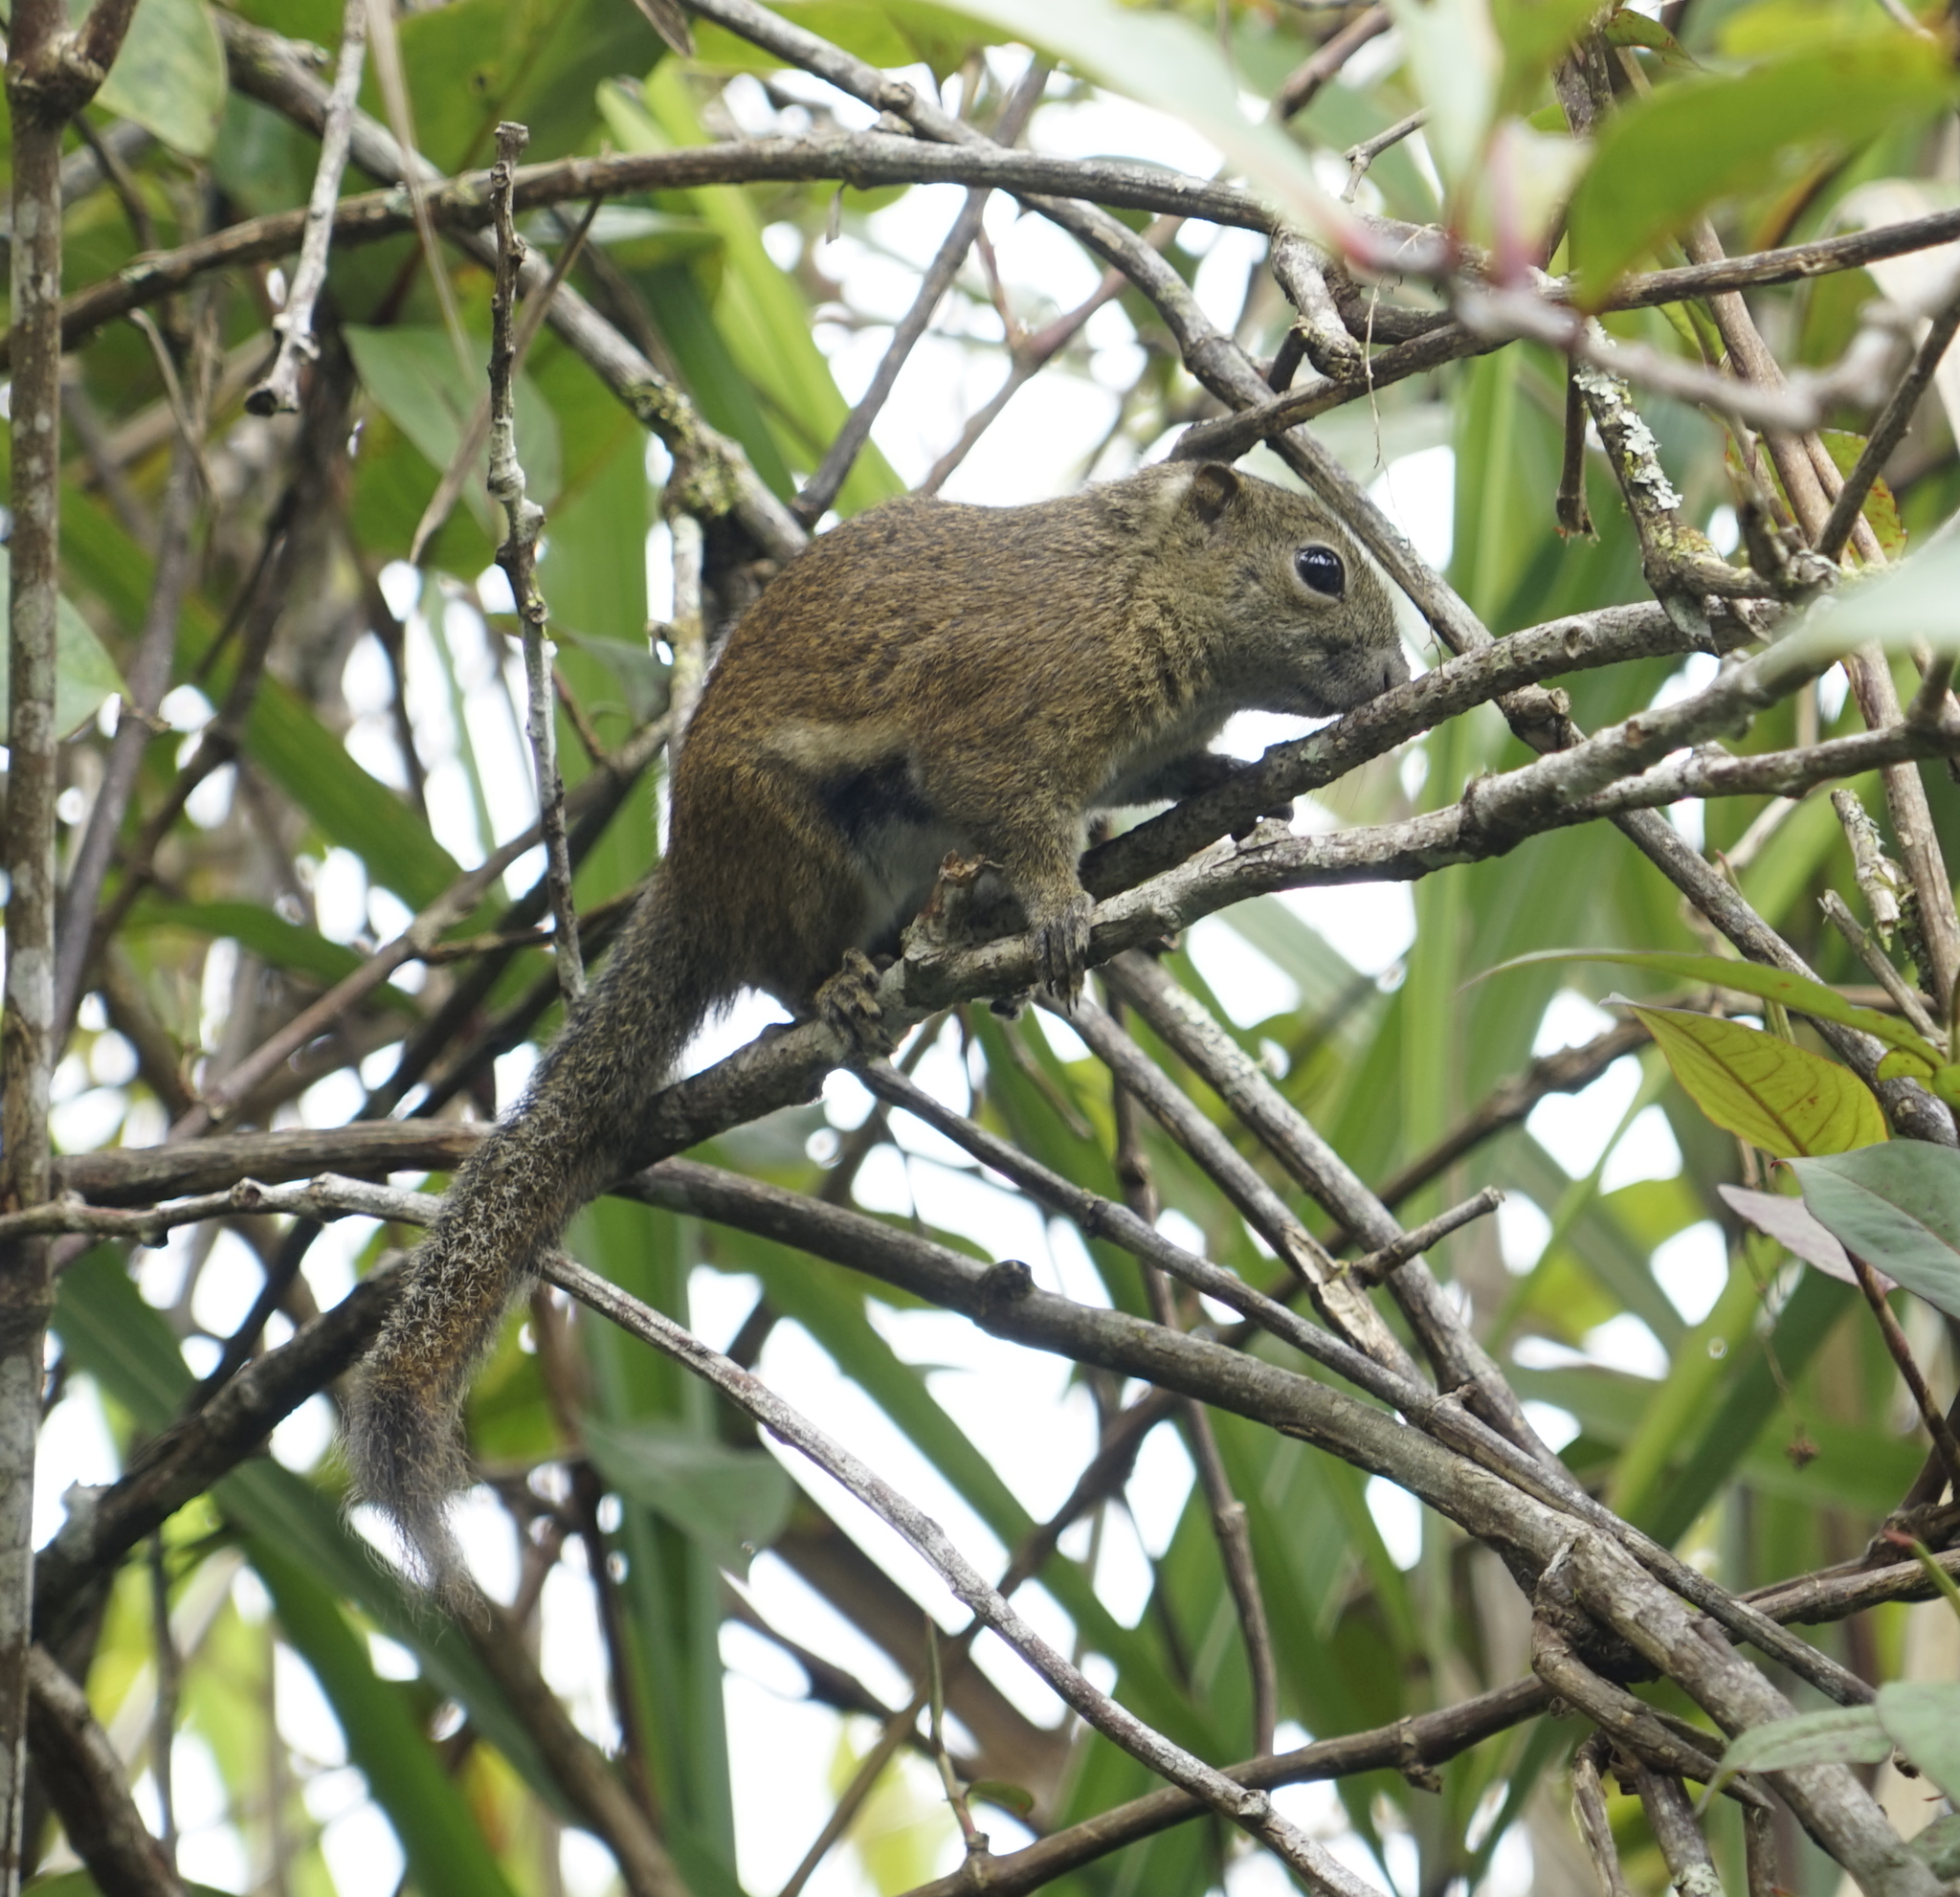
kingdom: Animalia
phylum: Chordata
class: Mammalia
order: Rodentia
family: Sciuridae
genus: Callosciurus
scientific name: Callosciurus orestes
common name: Borneo black-banded squirrel
